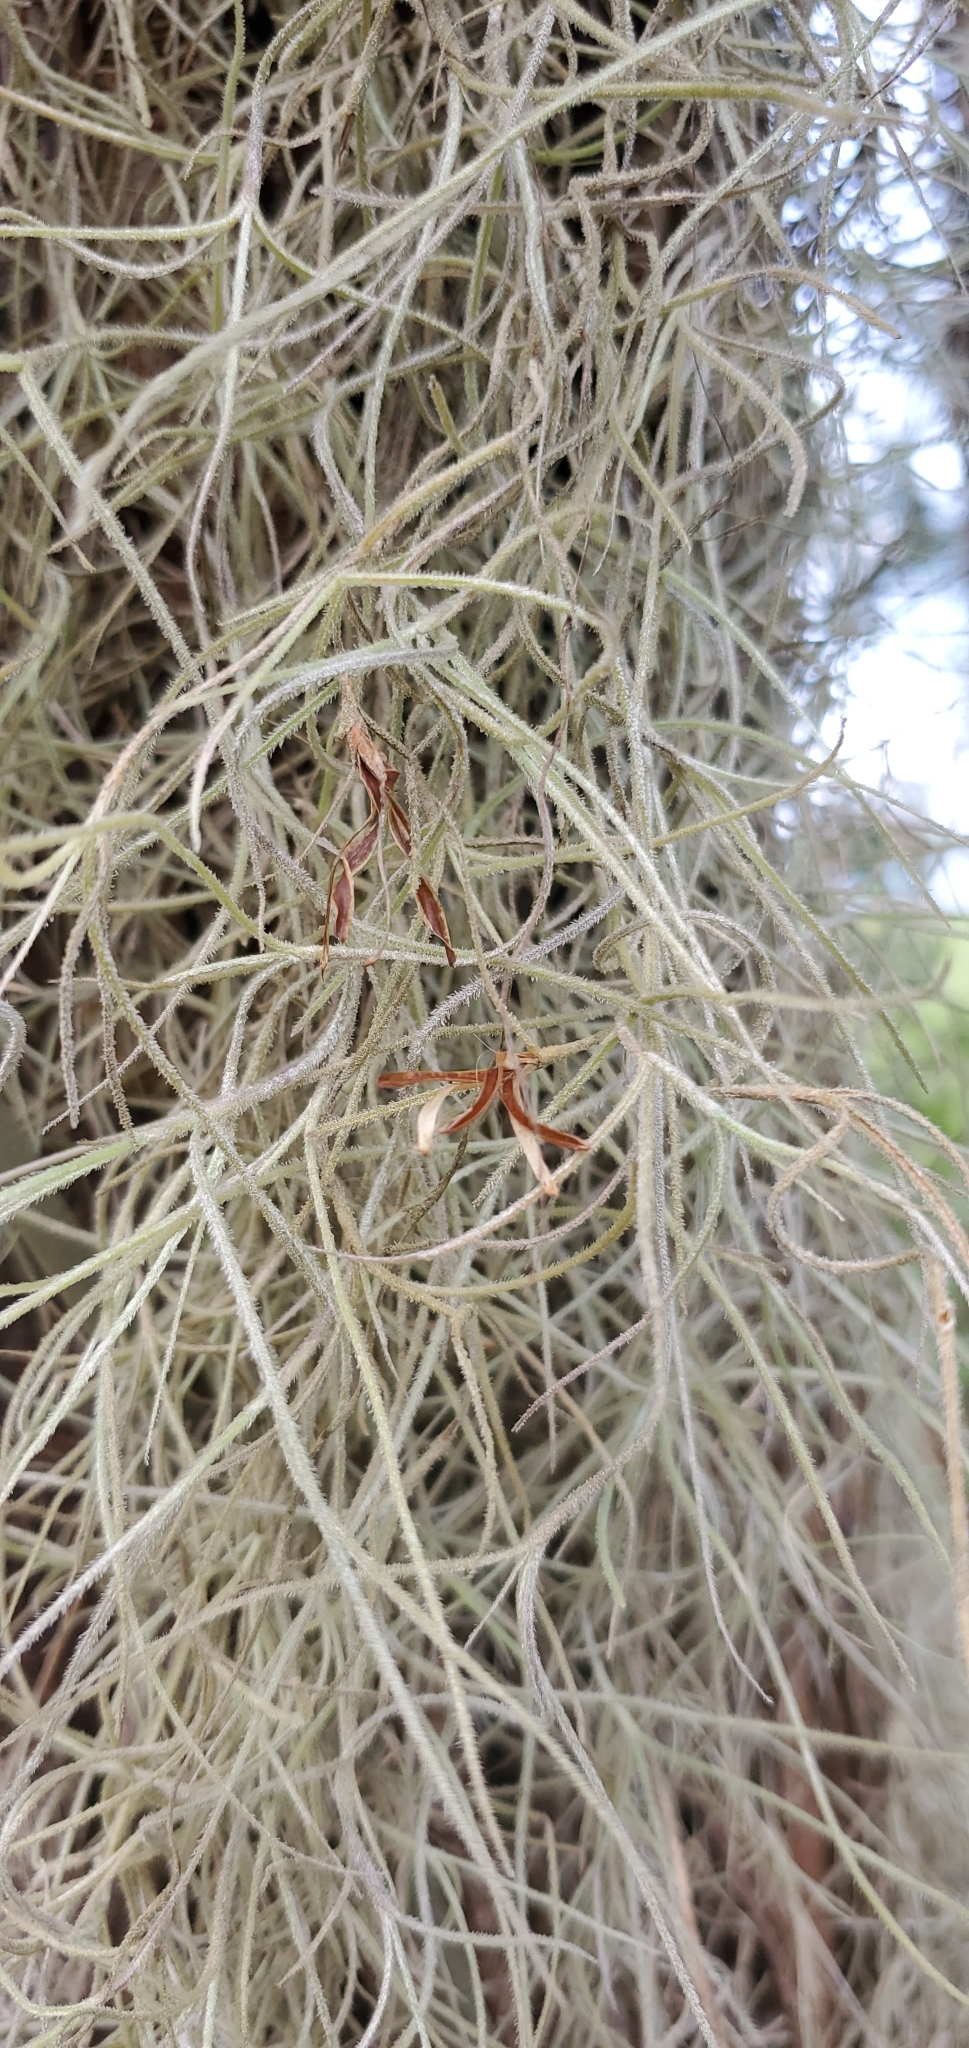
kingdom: Plantae
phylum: Tracheophyta
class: Liliopsida
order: Poales
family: Bromeliaceae
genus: Tillandsia
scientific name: Tillandsia usneoides
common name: Spanish moss
